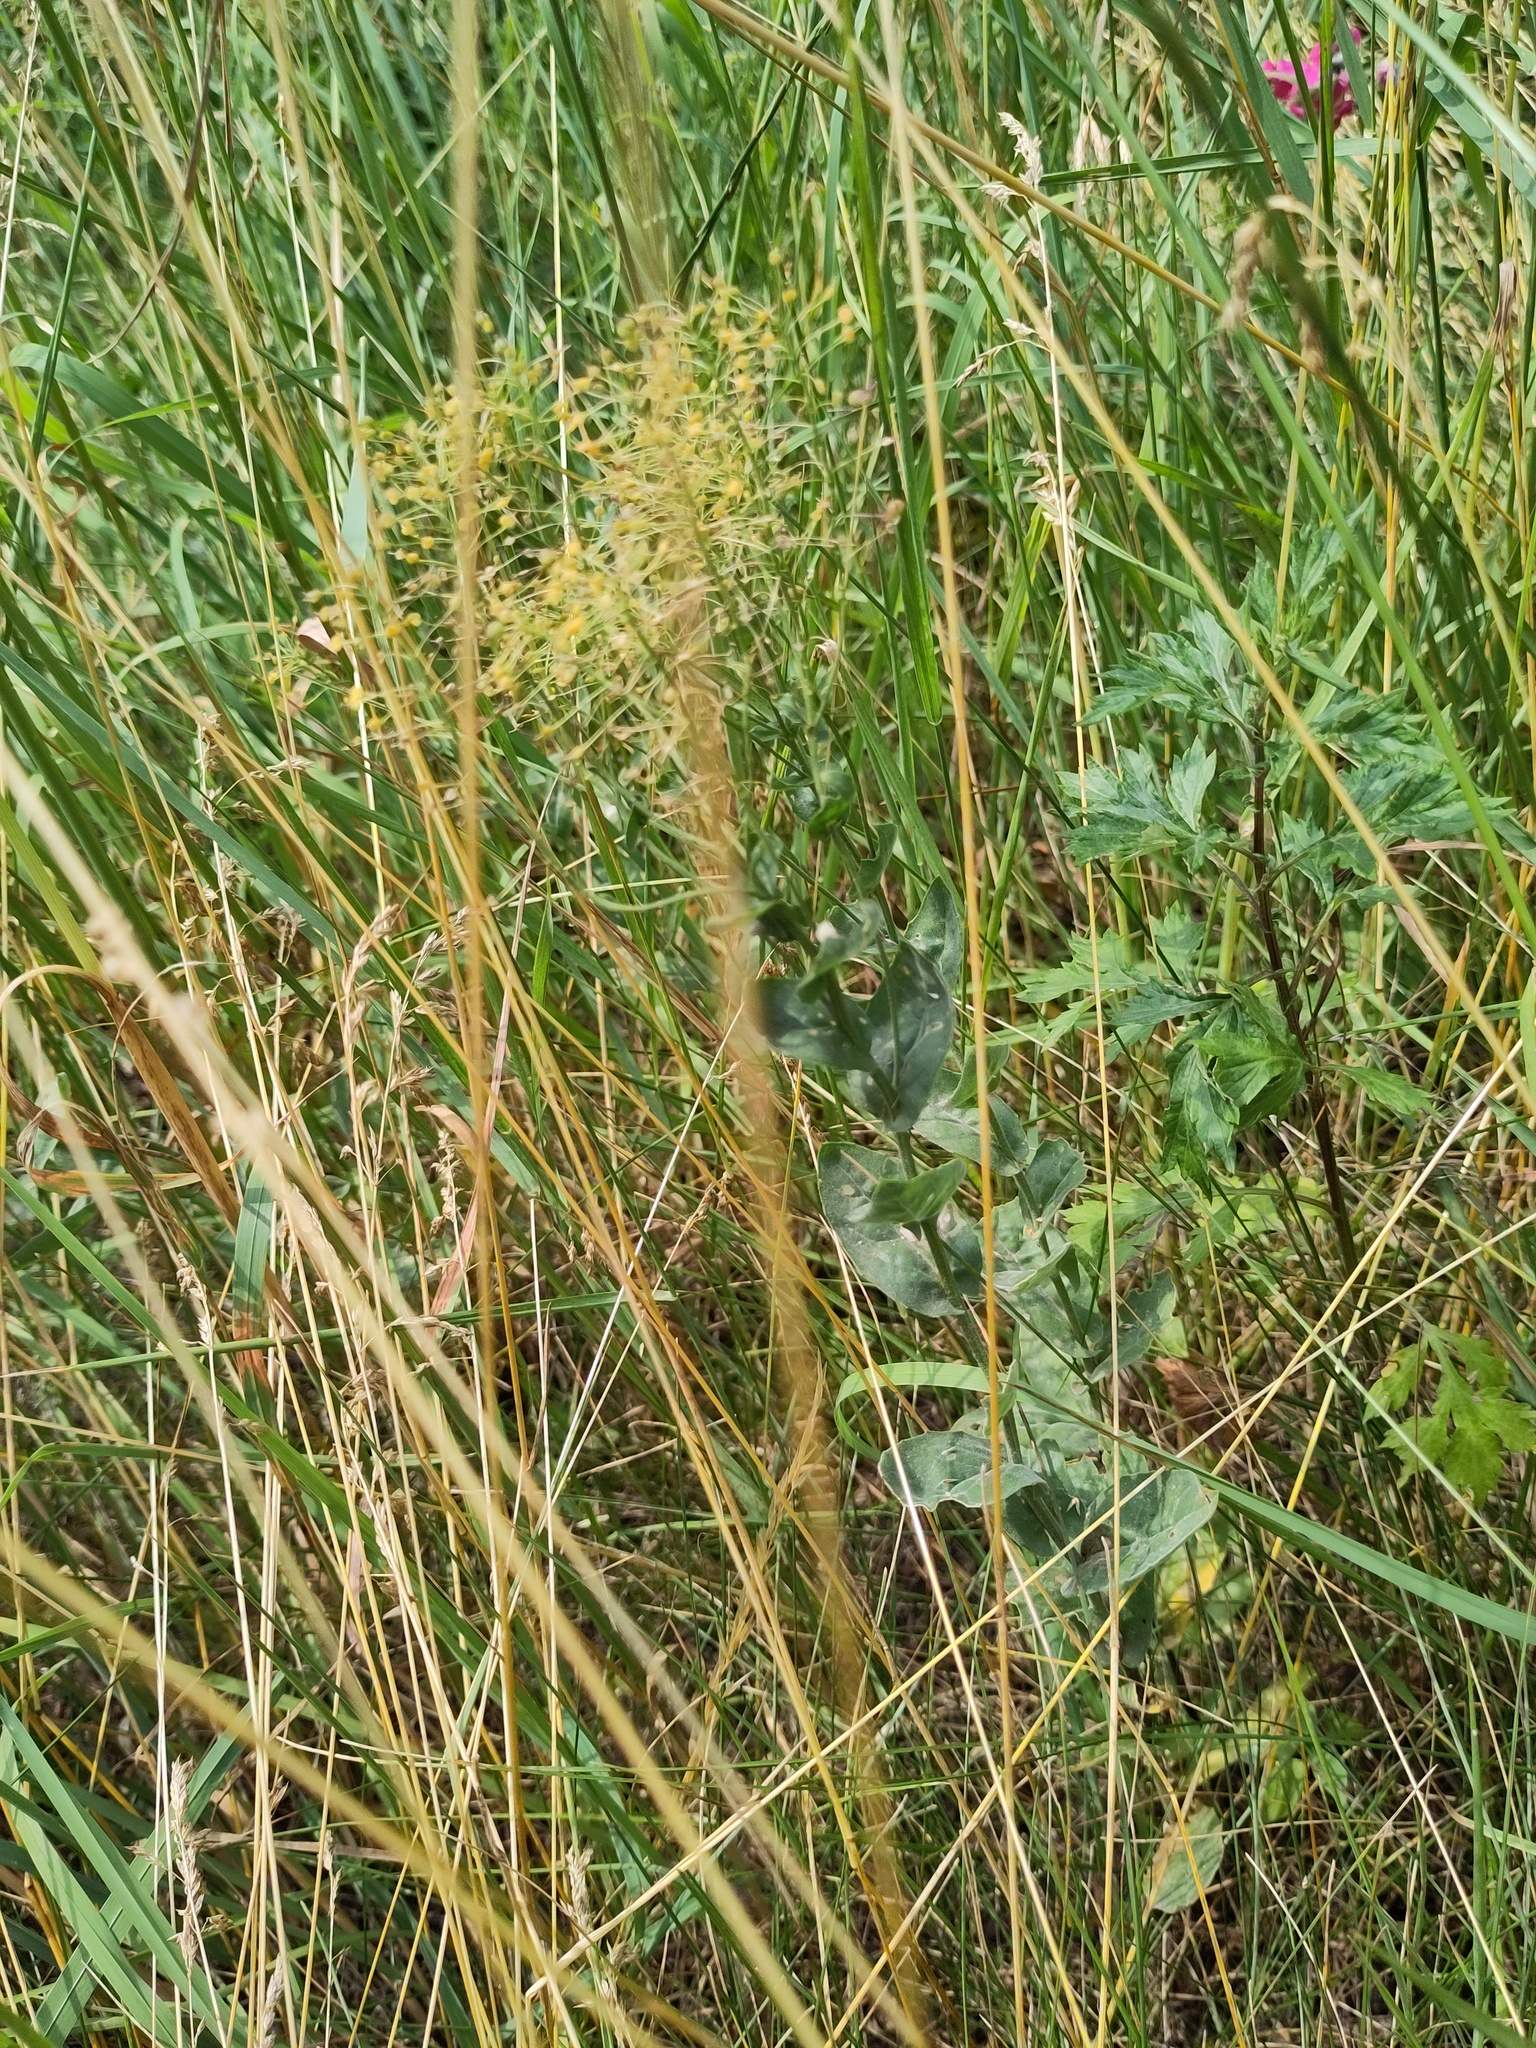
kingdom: Plantae
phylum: Tracheophyta
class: Magnoliopsida
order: Brassicales
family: Brassicaceae
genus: Lepidium
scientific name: Lepidium draba
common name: Hoary cress
